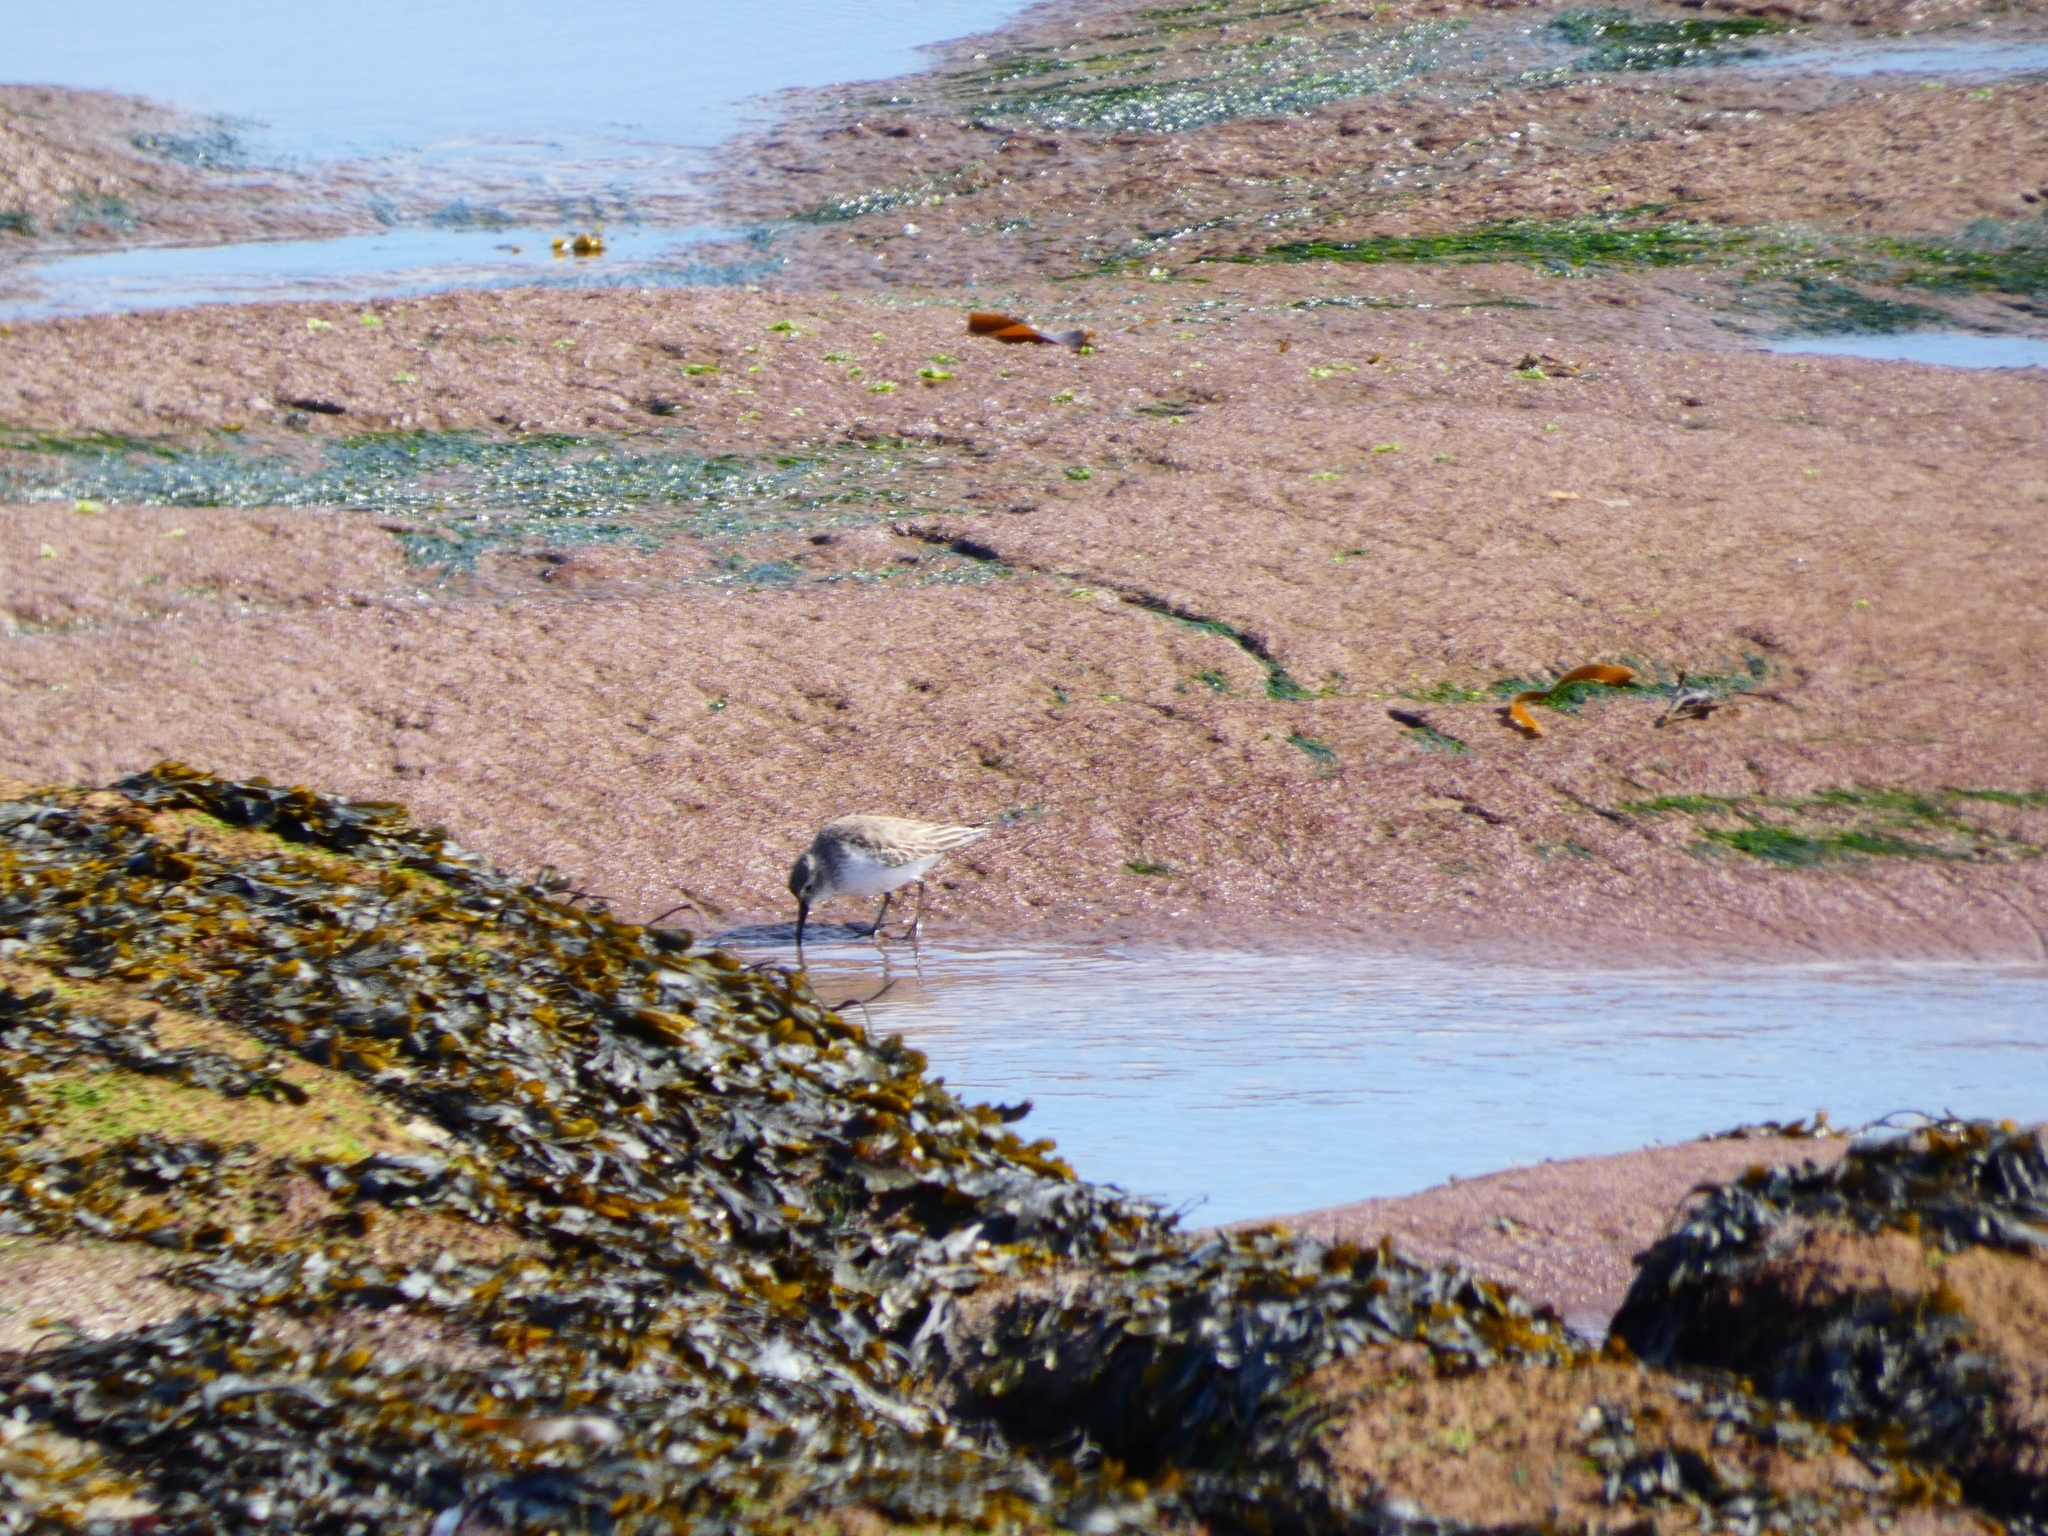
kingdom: Animalia
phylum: Chordata
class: Aves
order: Charadriiformes
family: Scolopacidae
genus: Calidris
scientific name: Calidris alpina
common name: Dunlin
